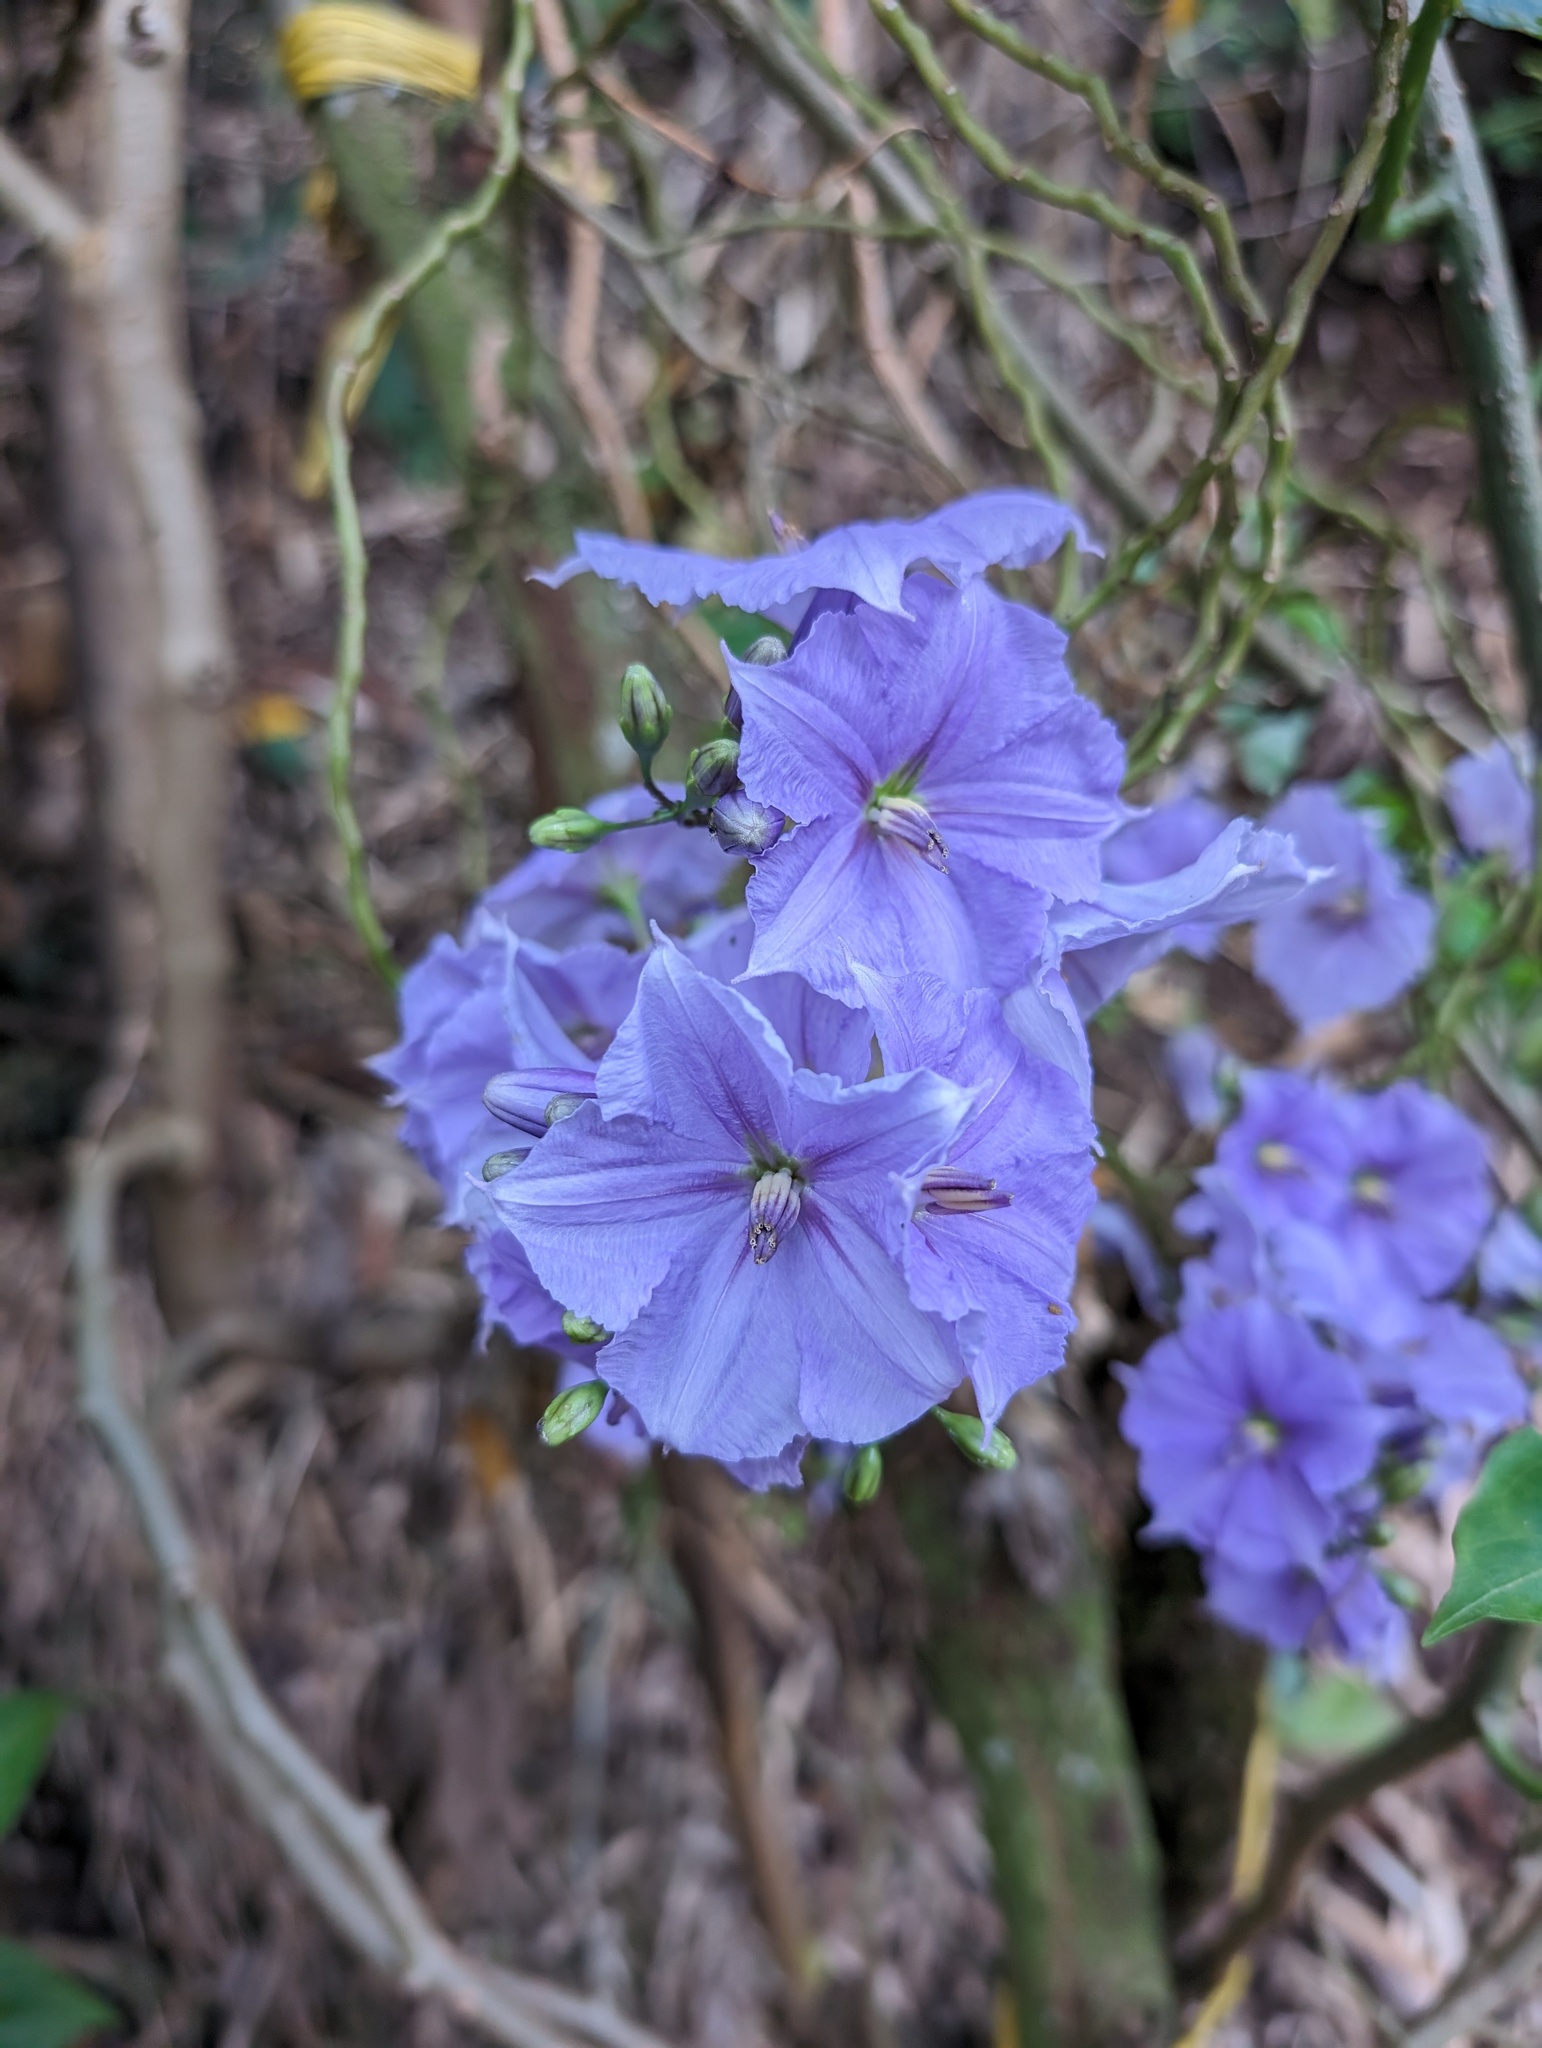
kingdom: Plantae
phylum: Tracheophyta
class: Magnoliopsida
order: Solanales
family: Solanaceae
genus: Solanum
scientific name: Solanum wendlandii
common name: Costa rican nightshade
